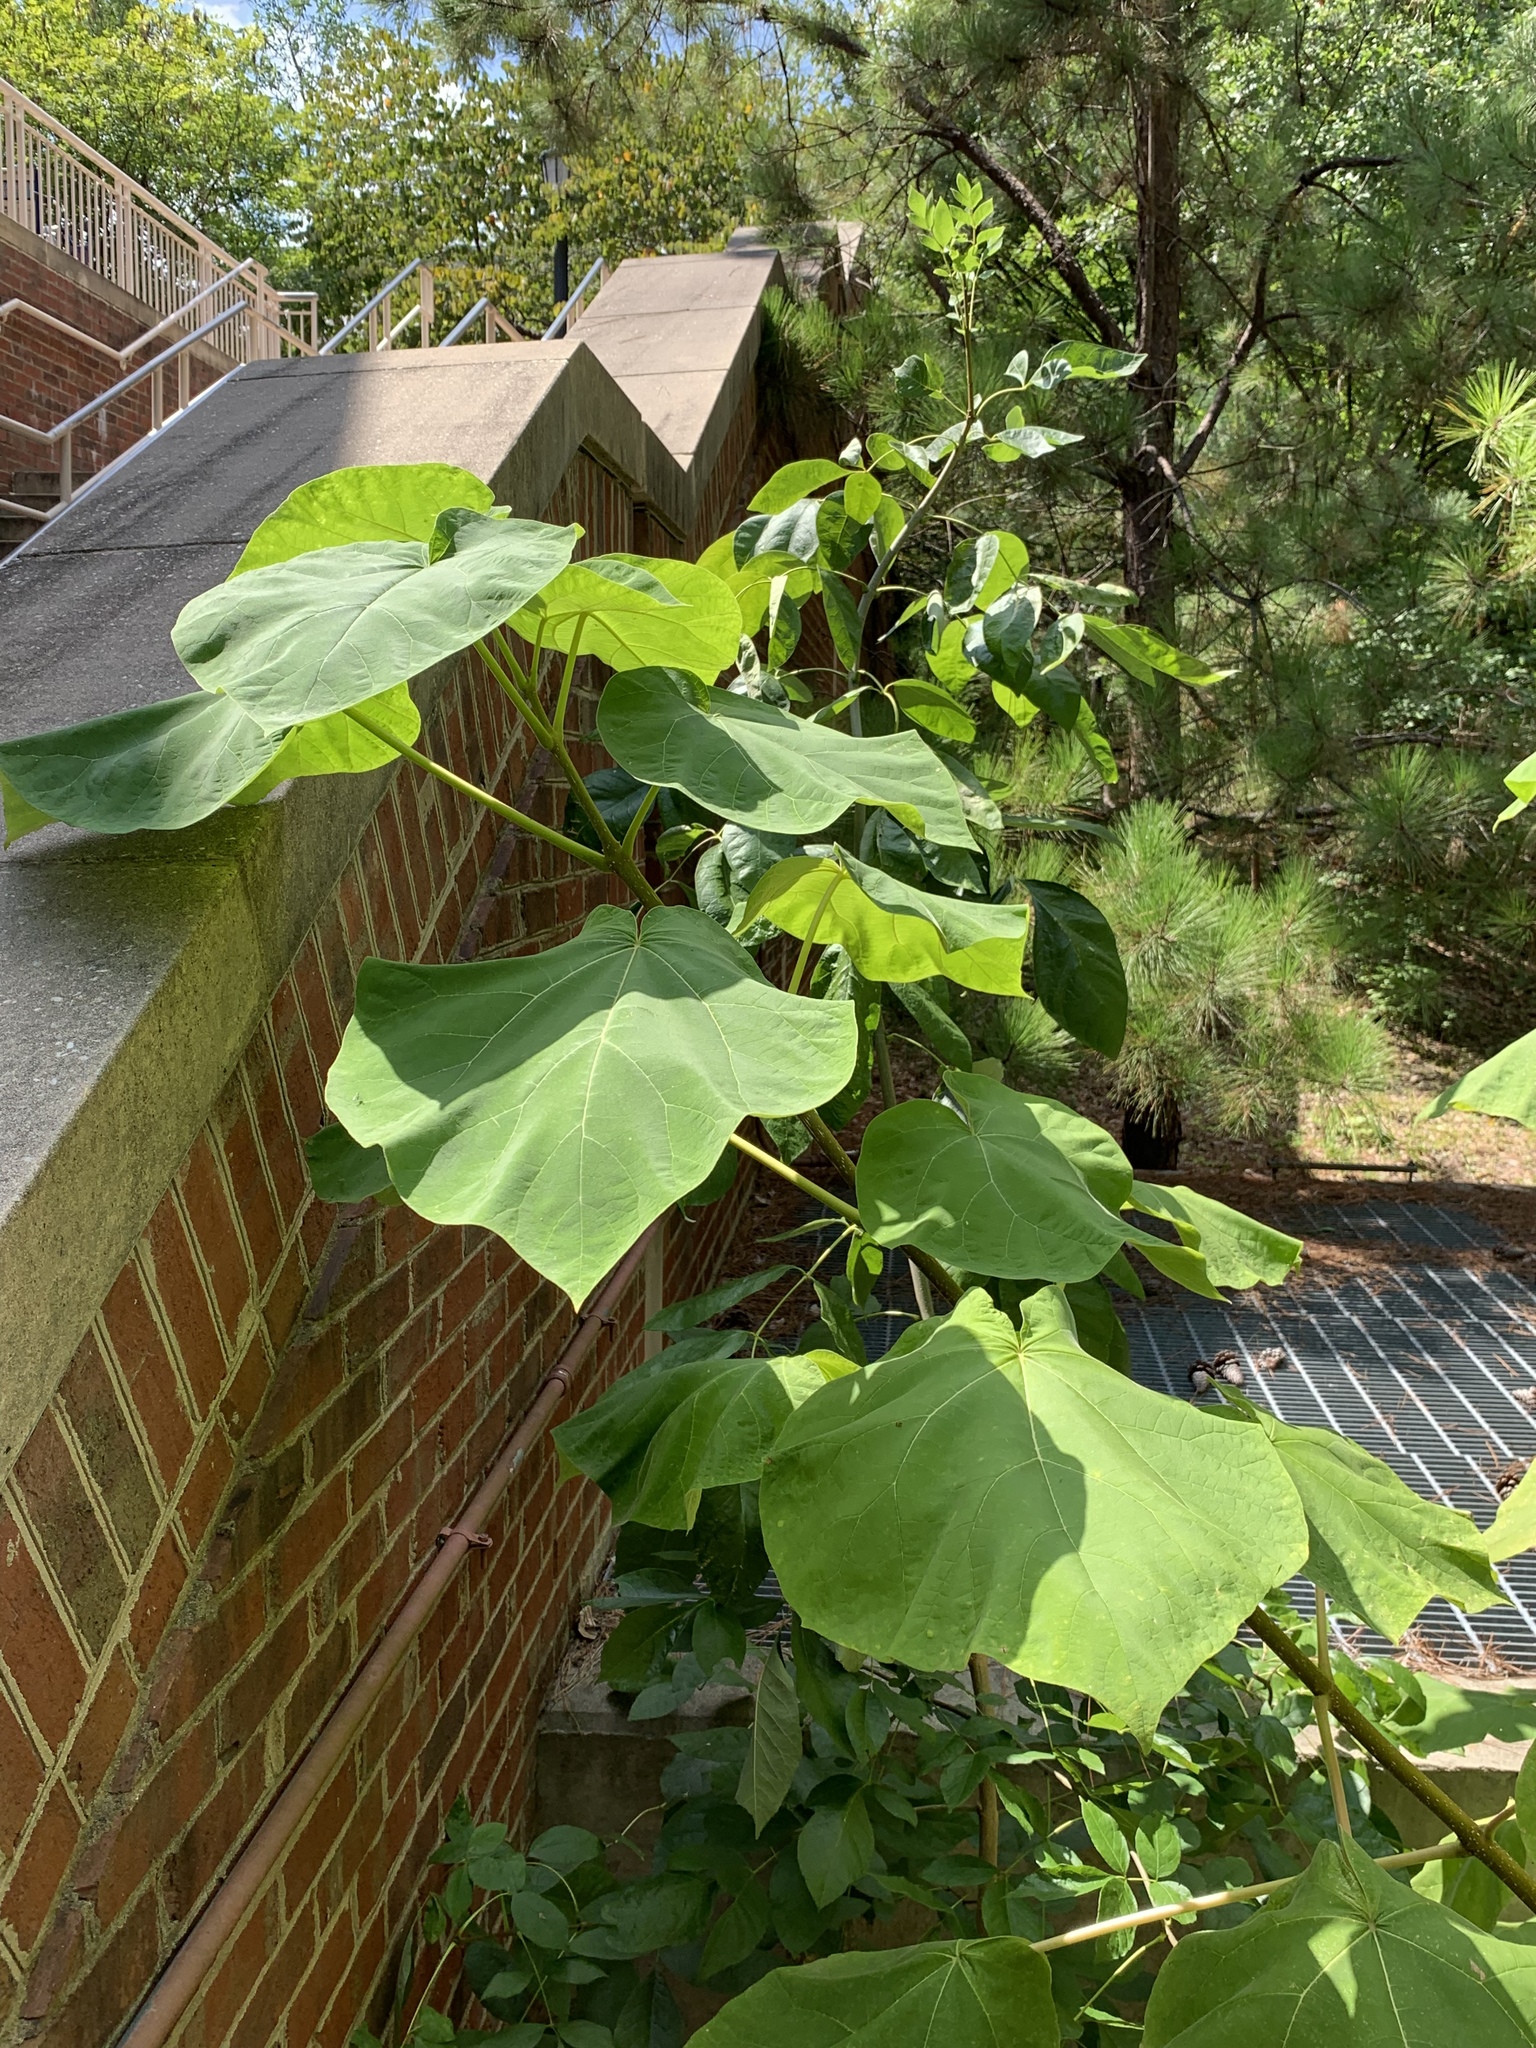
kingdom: Plantae
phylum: Tracheophyta
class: Magnoliopsida
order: Lamiales
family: Paulowniaceae
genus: Paulownia
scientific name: Paulownia tomentosa
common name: Foxglove-tree
